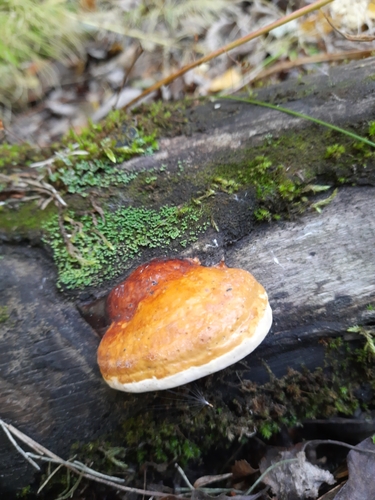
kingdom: Fungi
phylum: Basidiomycota
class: Agaricomycetes
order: Polyporales
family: Fomitopsidaceae
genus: Fomitopsis
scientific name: Fomitopsis pinicola
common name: Red-belted bracket
